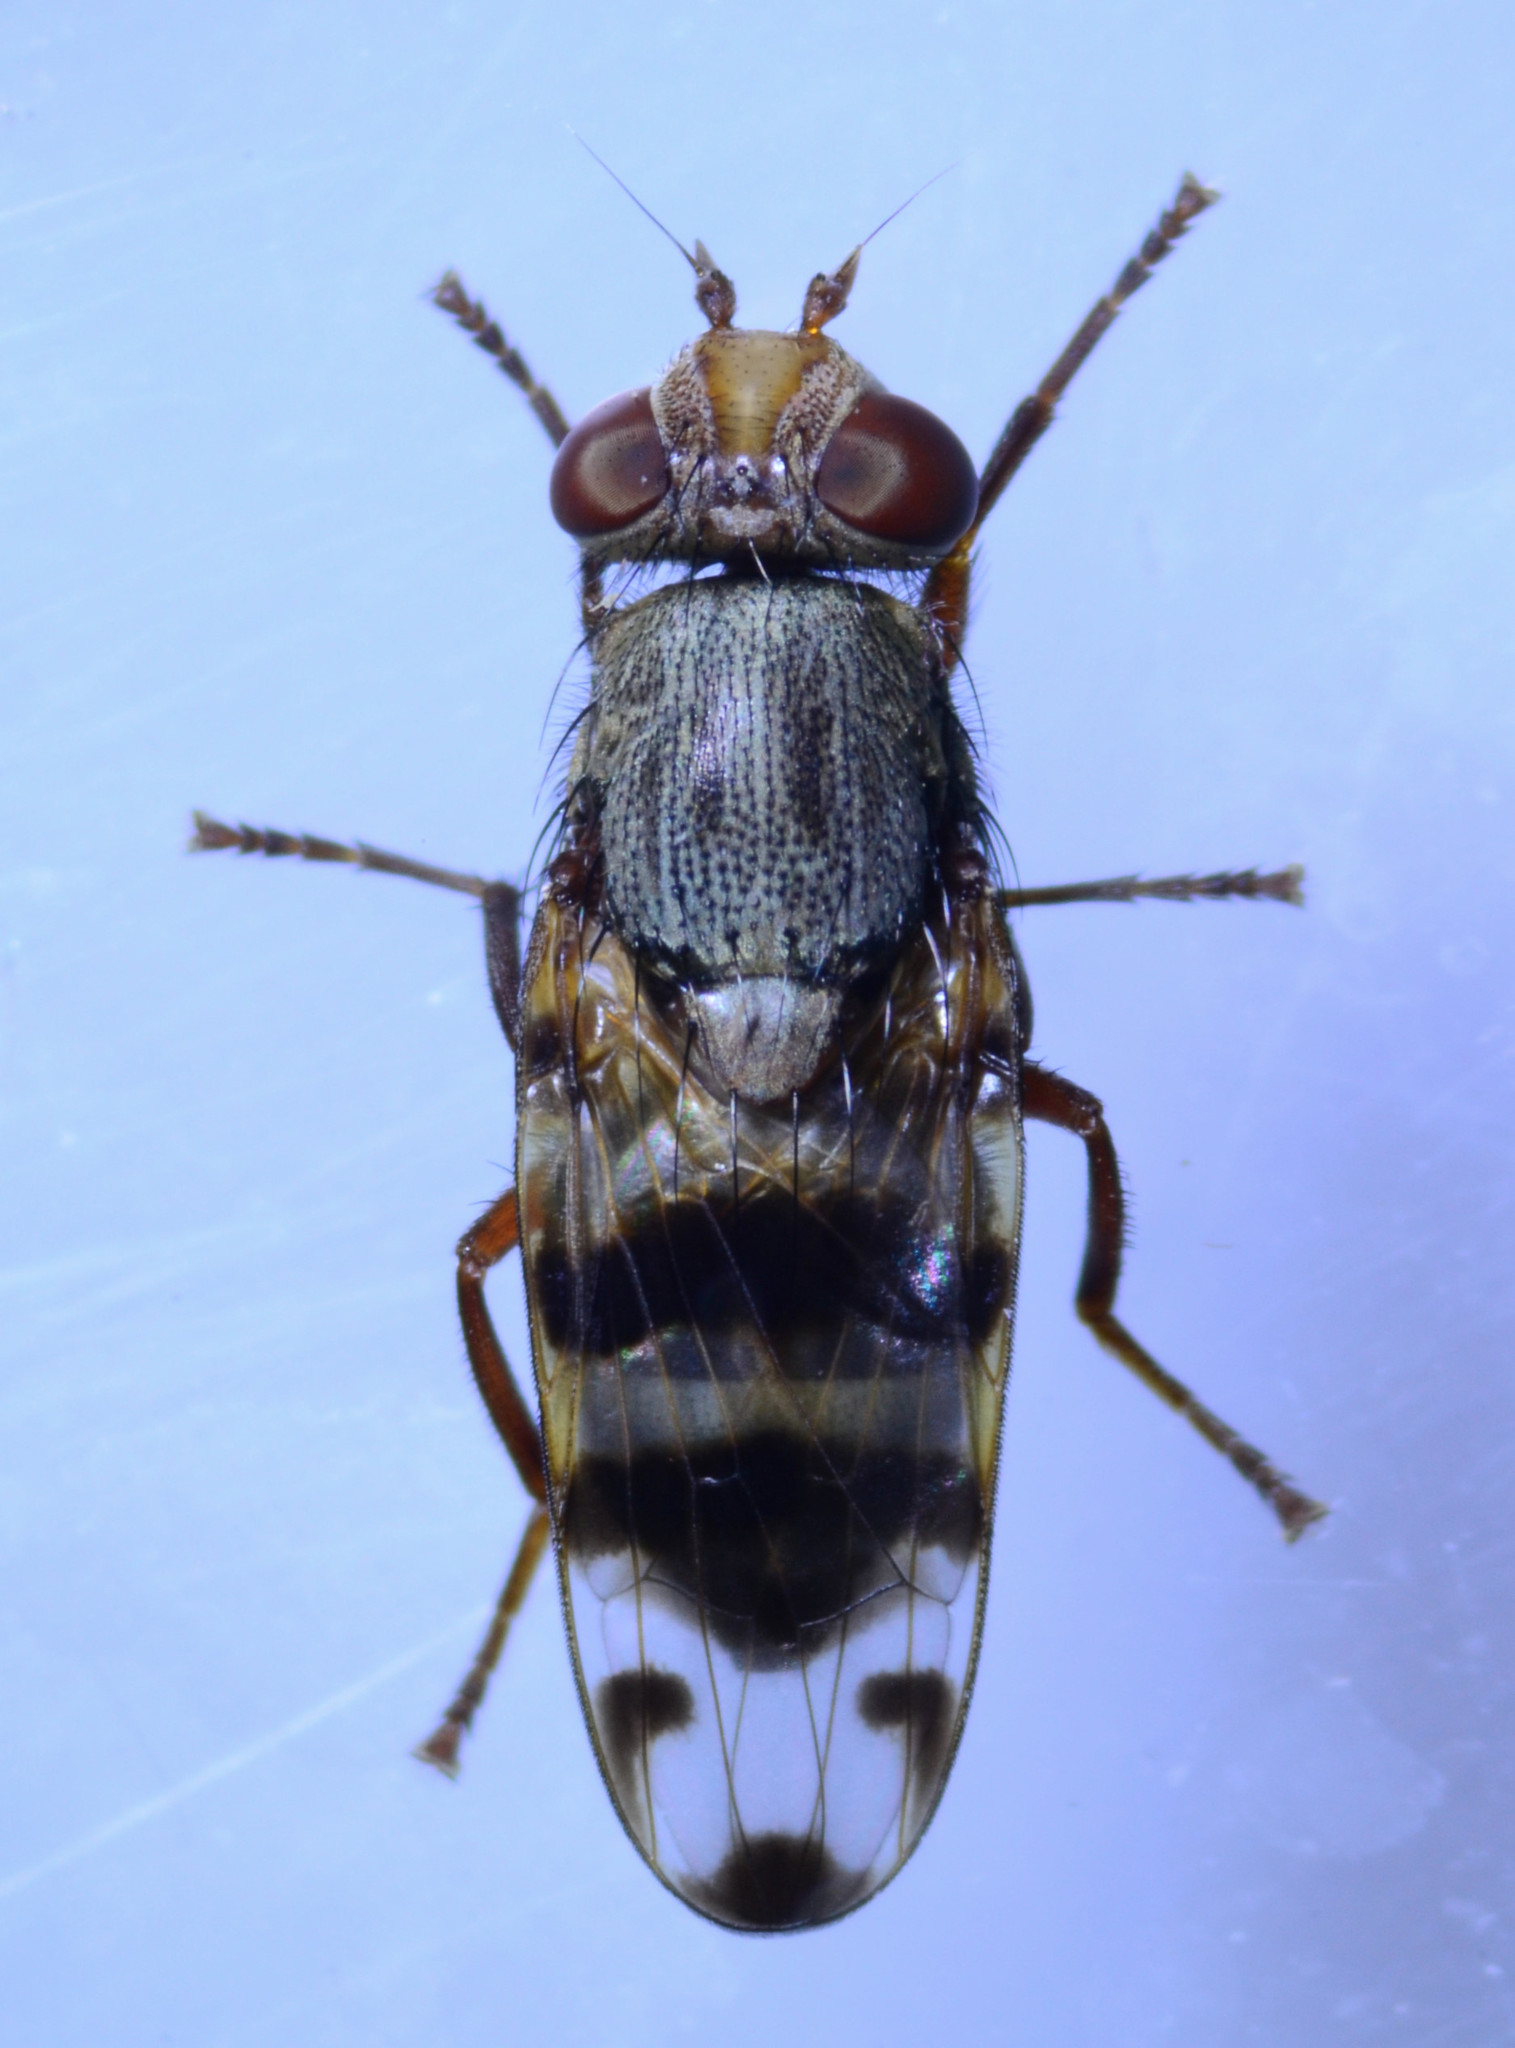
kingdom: Animalia
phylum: Arthropoda
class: Insecta
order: Diptera
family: Ulidiidae
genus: Ceroxys
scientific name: Ceroxys latiusculus
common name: Picture-winged fly
